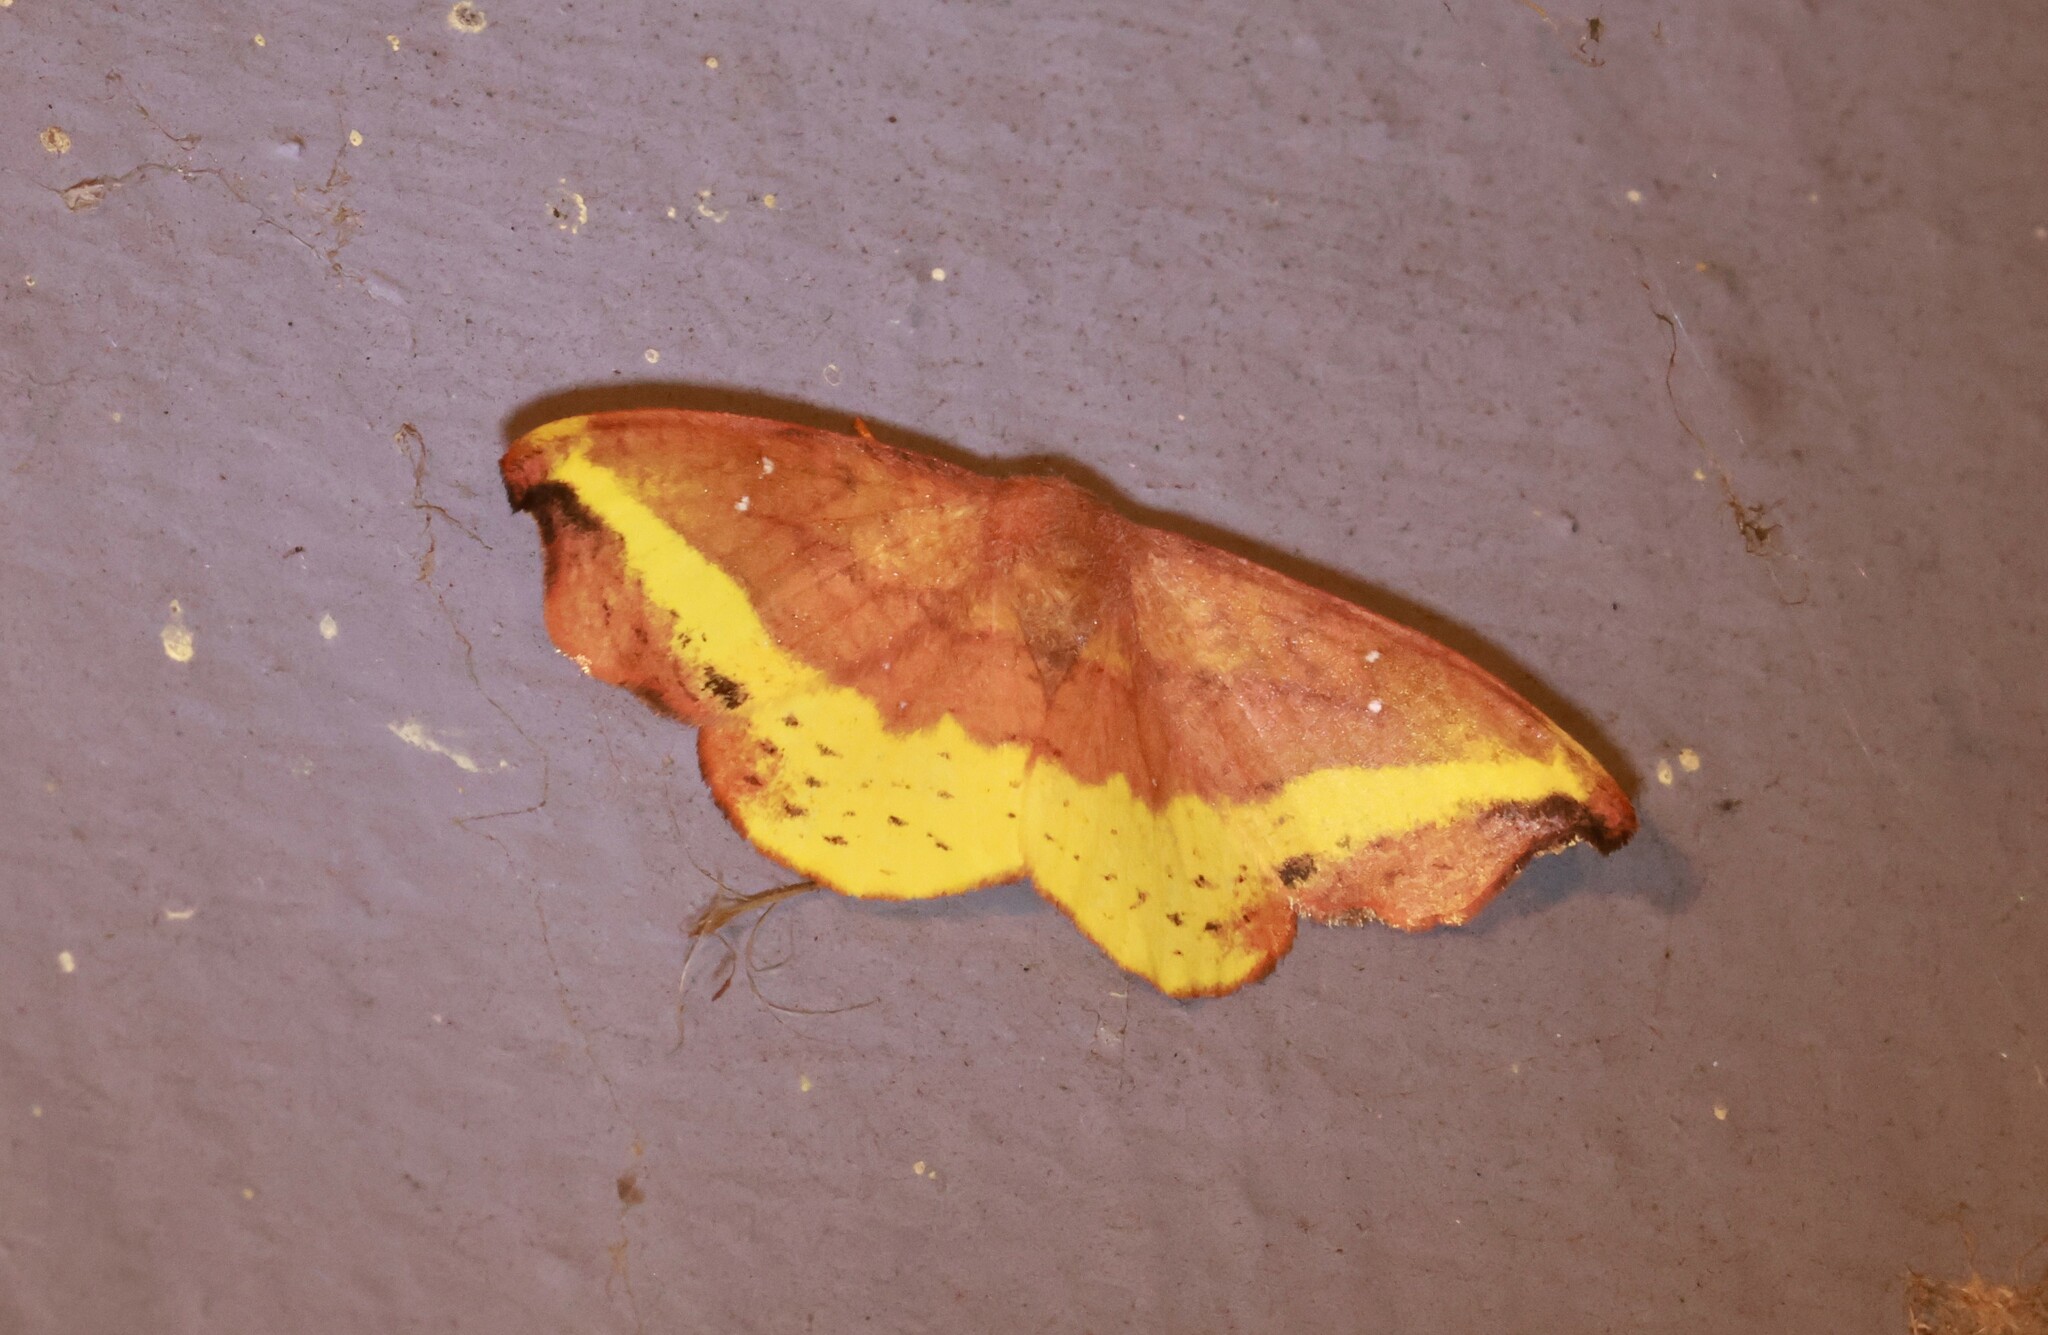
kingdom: Animalia
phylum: Arthropoda
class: Insecta
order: Lepidoptera
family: Drepanidae
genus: Oreta
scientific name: Oreta rosea
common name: Rose hooktip
